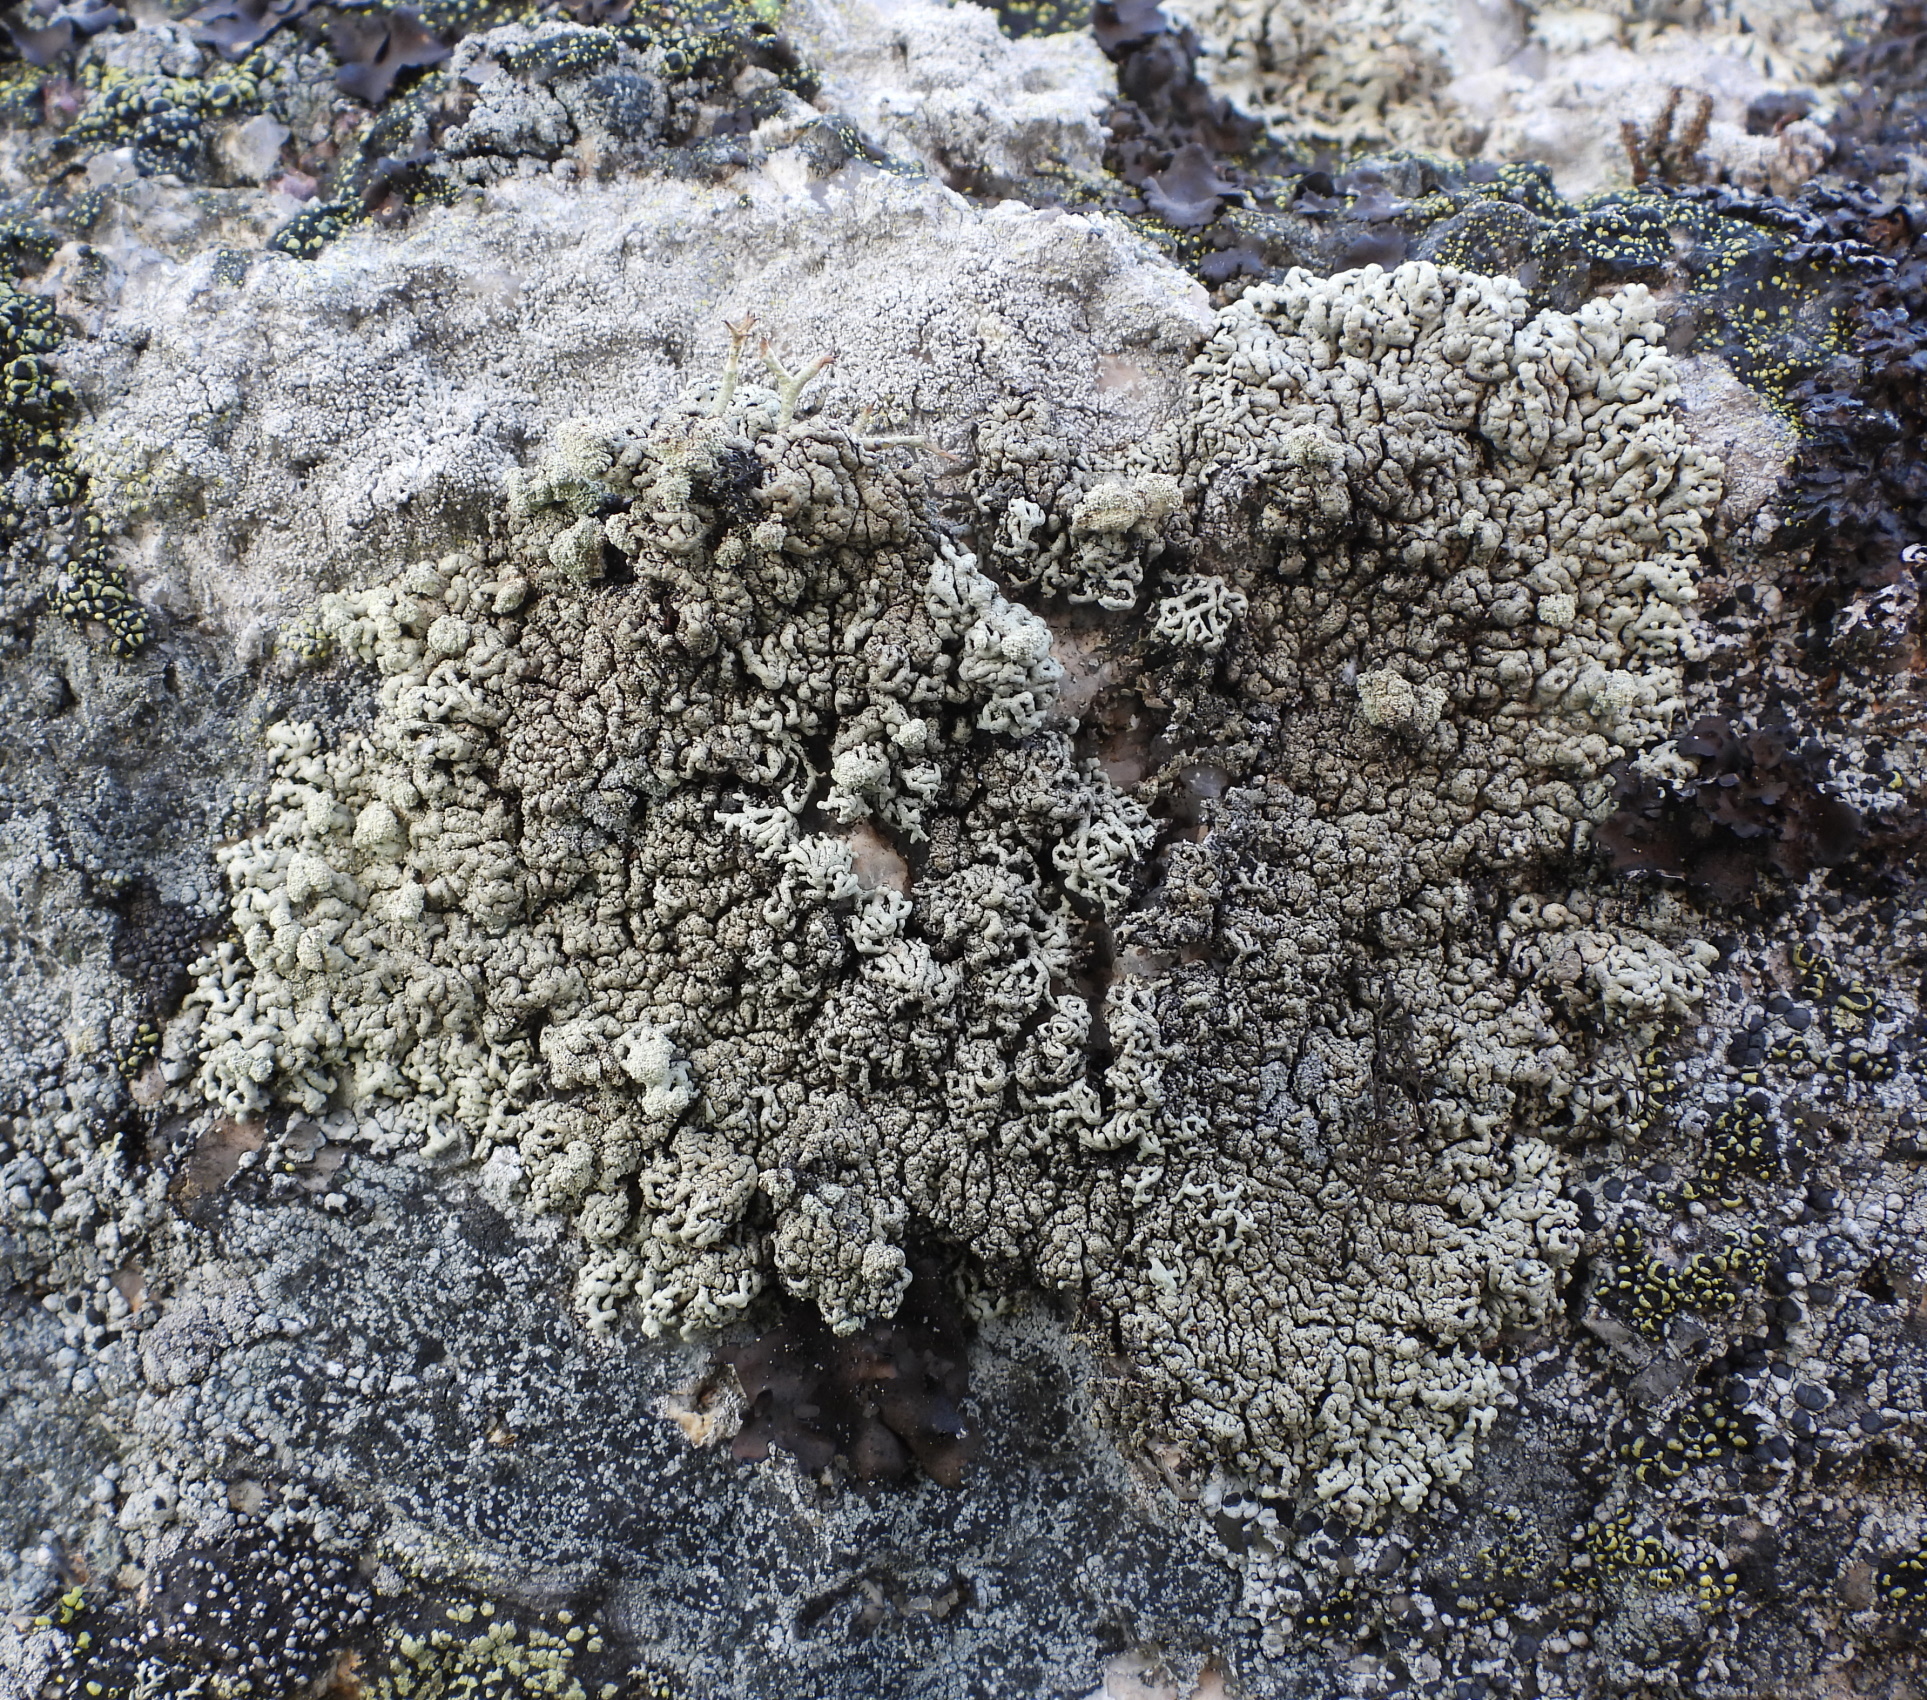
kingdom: Fungi
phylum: Ascomycota
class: Lecanoromycetes
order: Lecanorales
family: Parmeliaceae
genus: Arctoparmelia
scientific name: Arctoparmelia incurva
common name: Bent ring lichen
